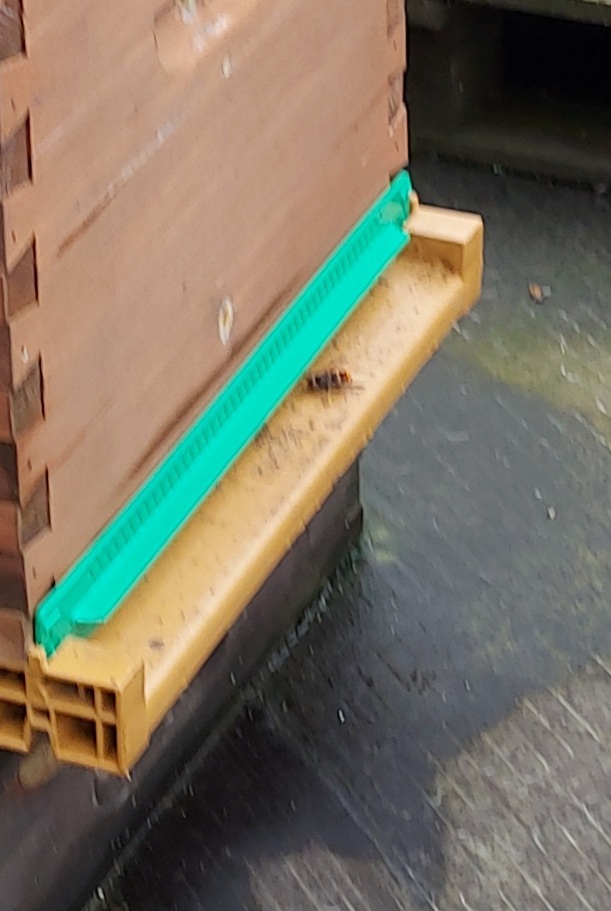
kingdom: Animalia
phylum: Arthropoda
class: Insecta
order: Hymenoptera
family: Vespidae
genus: Vespa
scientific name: Vespa velutina
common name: Asian hornet
